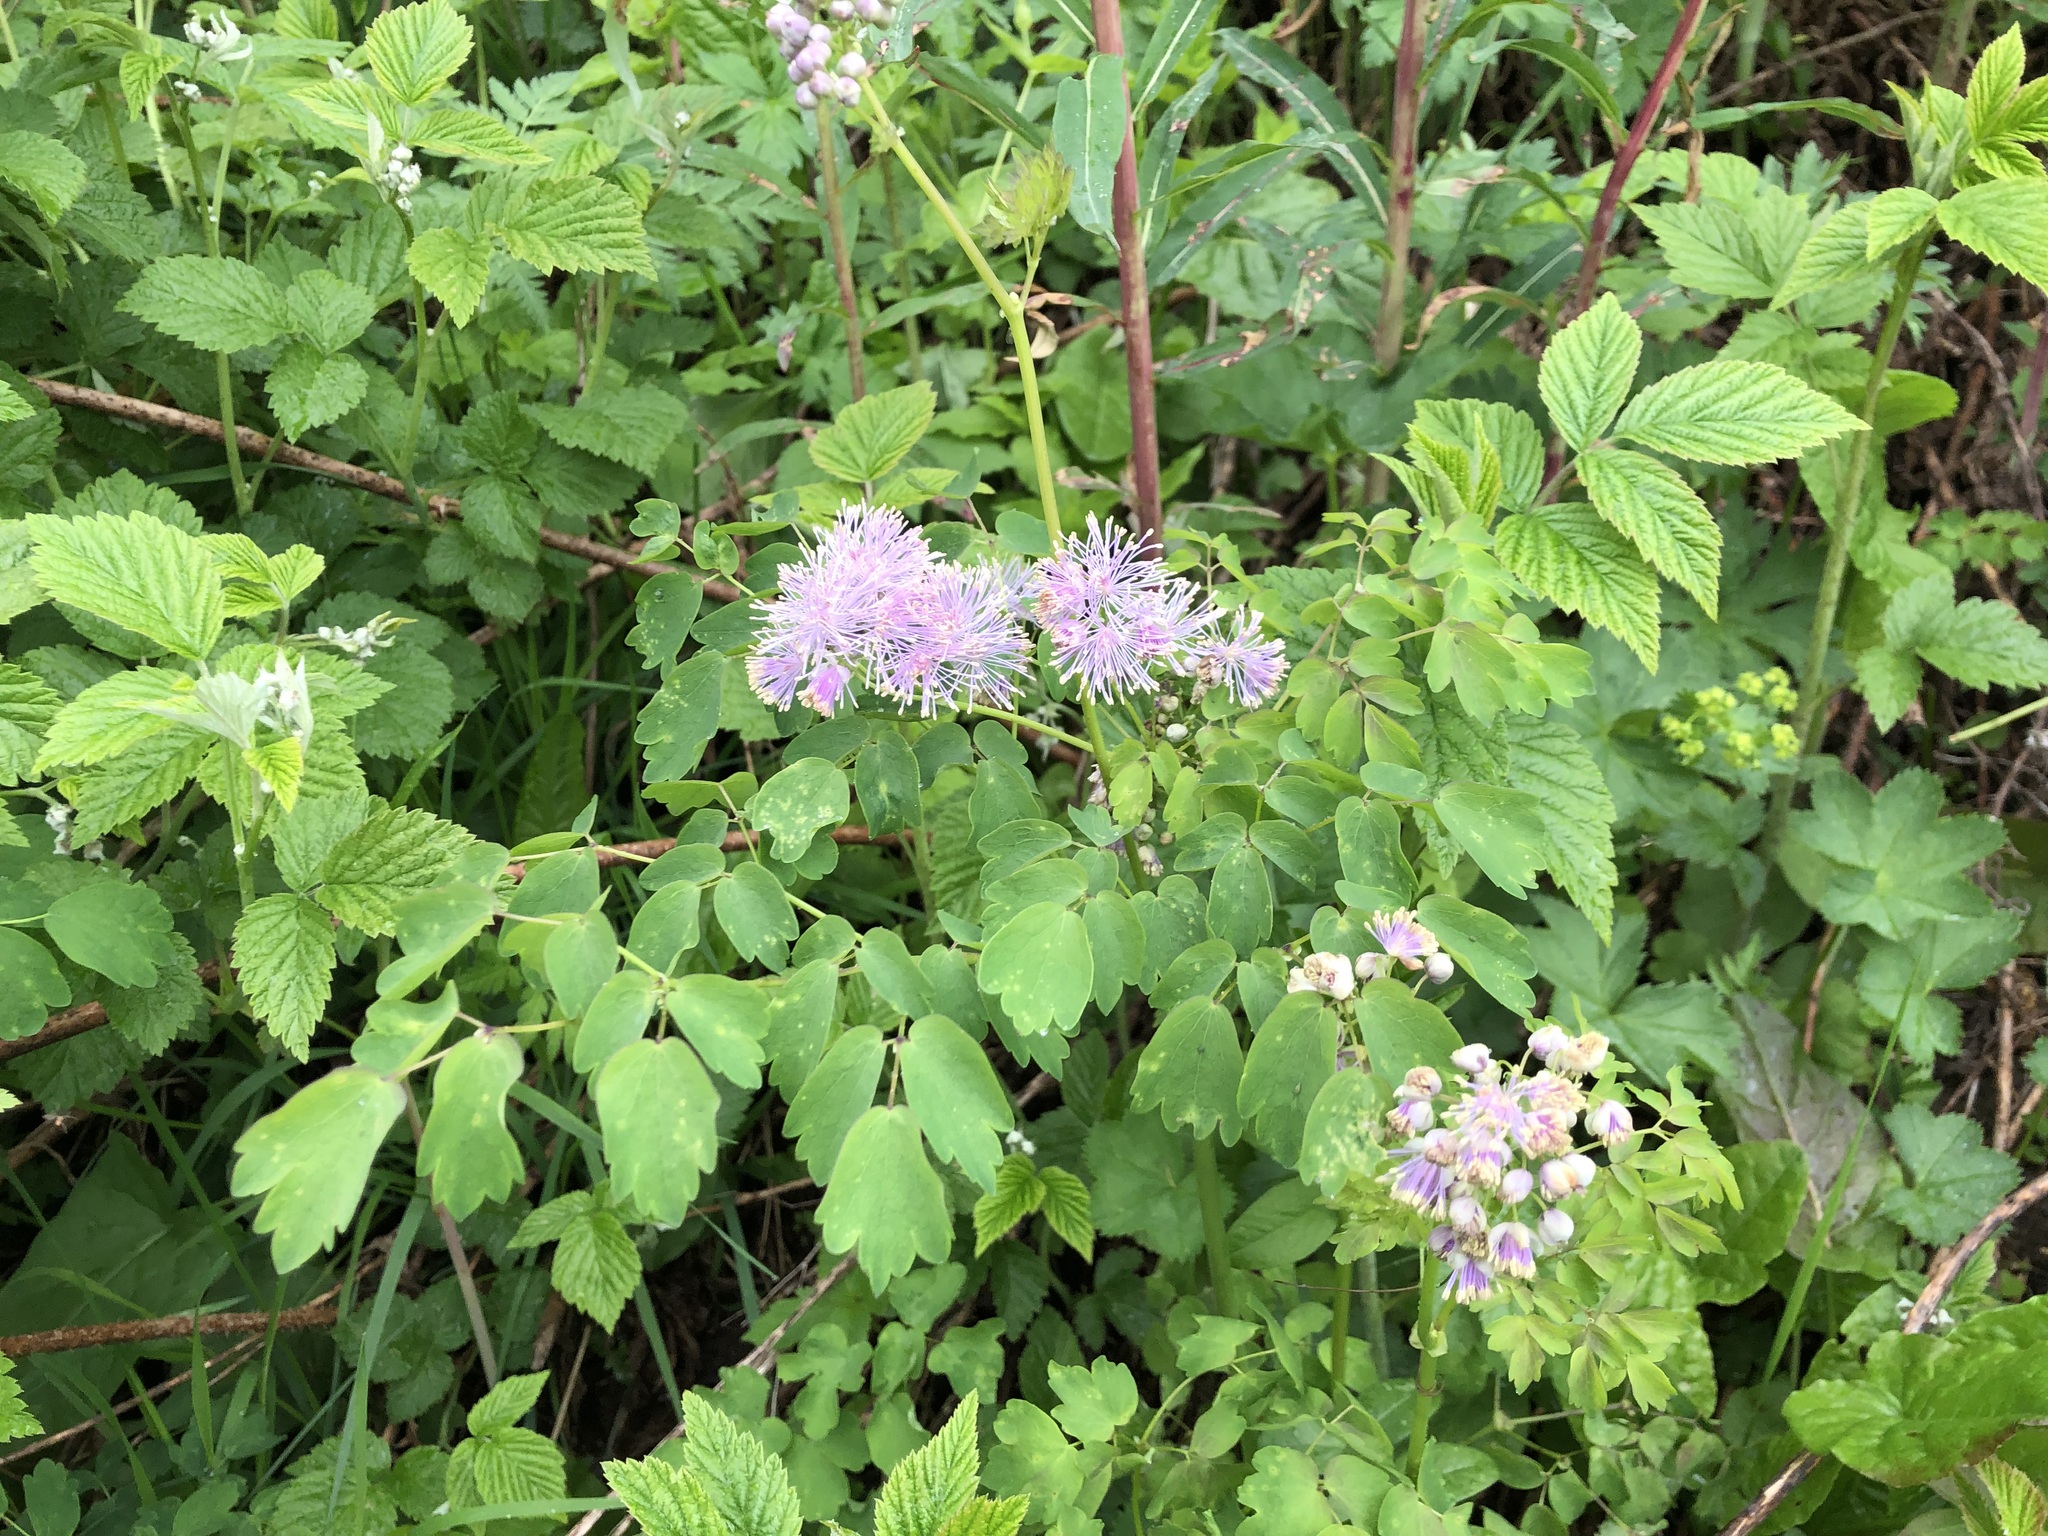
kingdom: Plantae
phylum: Tracheophyta
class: Magnoliopsida
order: Ranunculales
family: Ranunculaceae
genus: Thalictrum
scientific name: Thalictrum aquilegiifolium
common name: French meadow-rue
